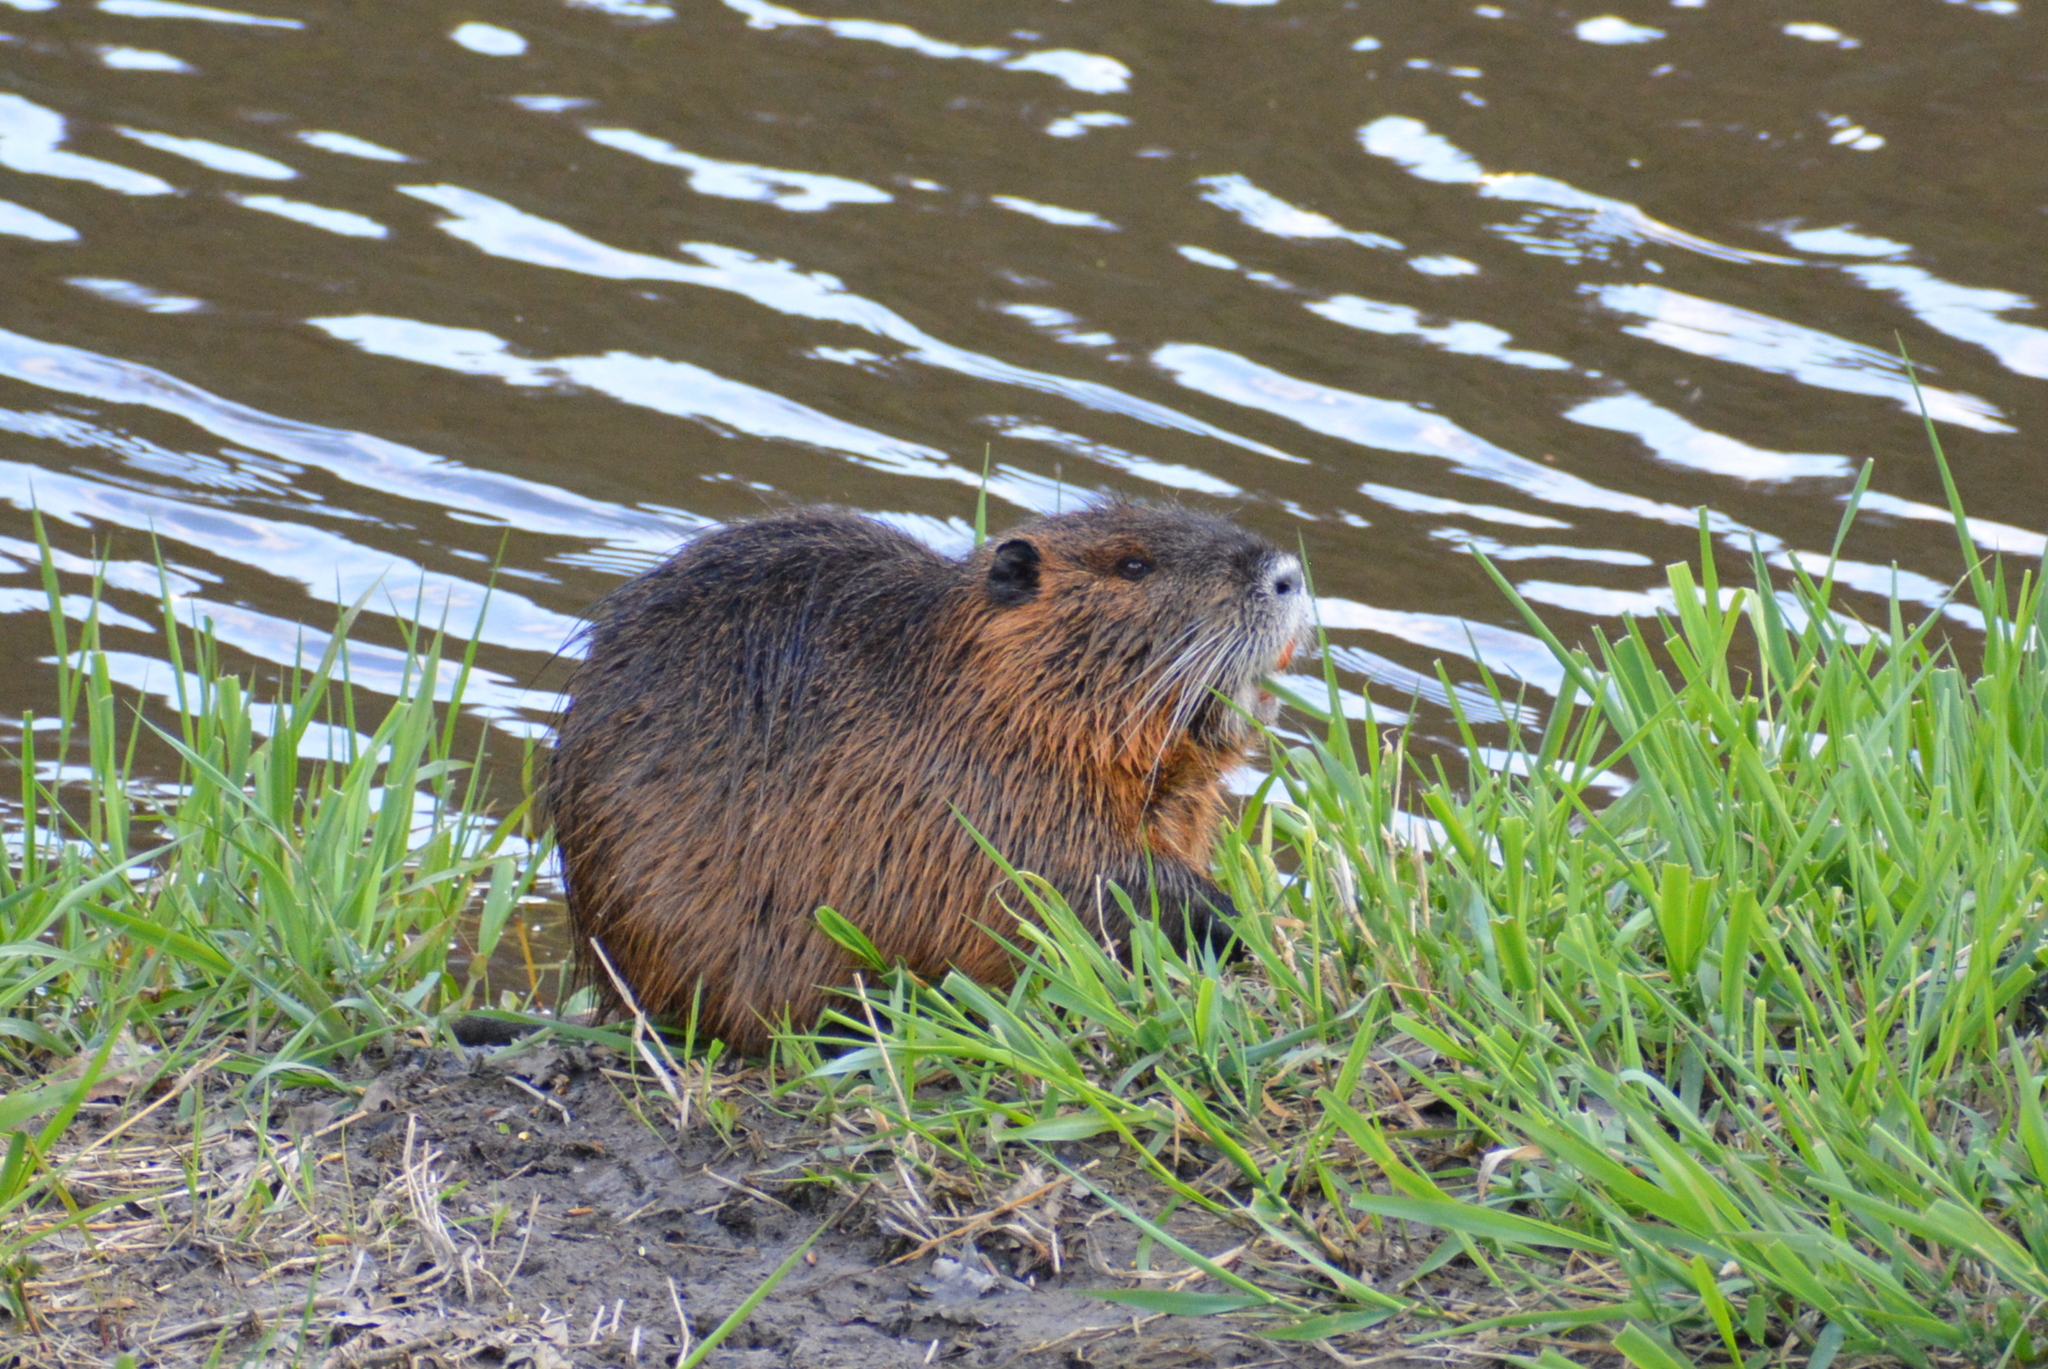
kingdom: Animalia
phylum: Chordata
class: Mammalia
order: Rodentia
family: Myocastoridae
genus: Myocastor
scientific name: Myocastor coypus
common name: Coypu
